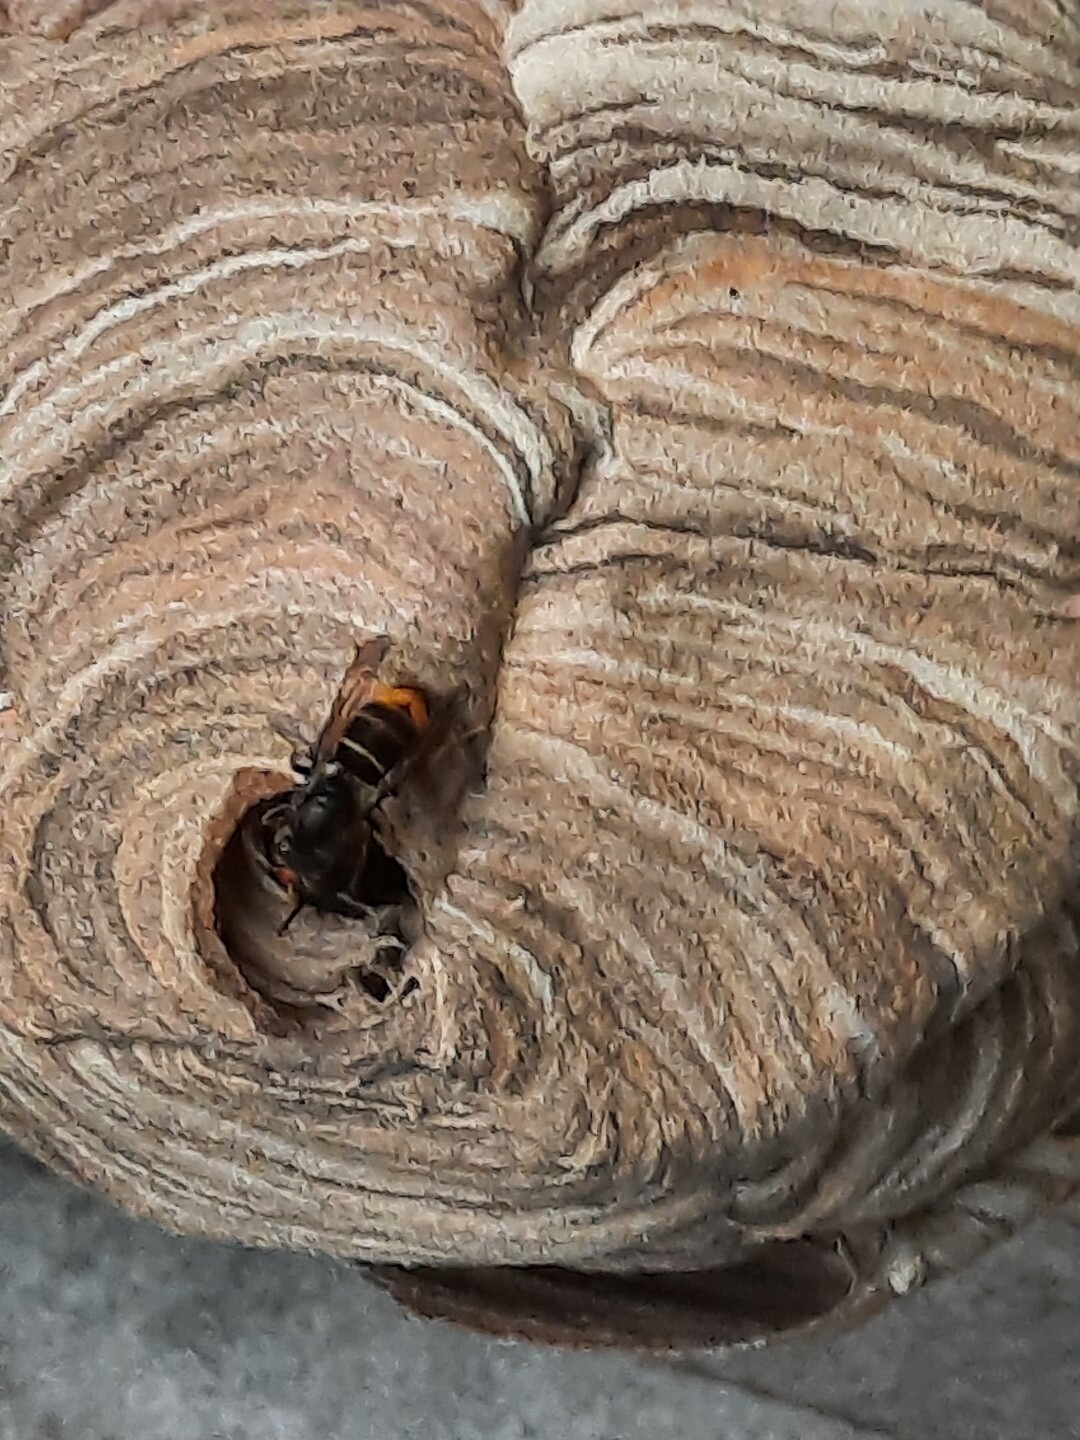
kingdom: Animalia
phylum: Arthropoda
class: Insecta
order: Hymenoptera
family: Vespidae
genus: Vespa
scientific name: Vespa velutina
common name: Asian hornet
